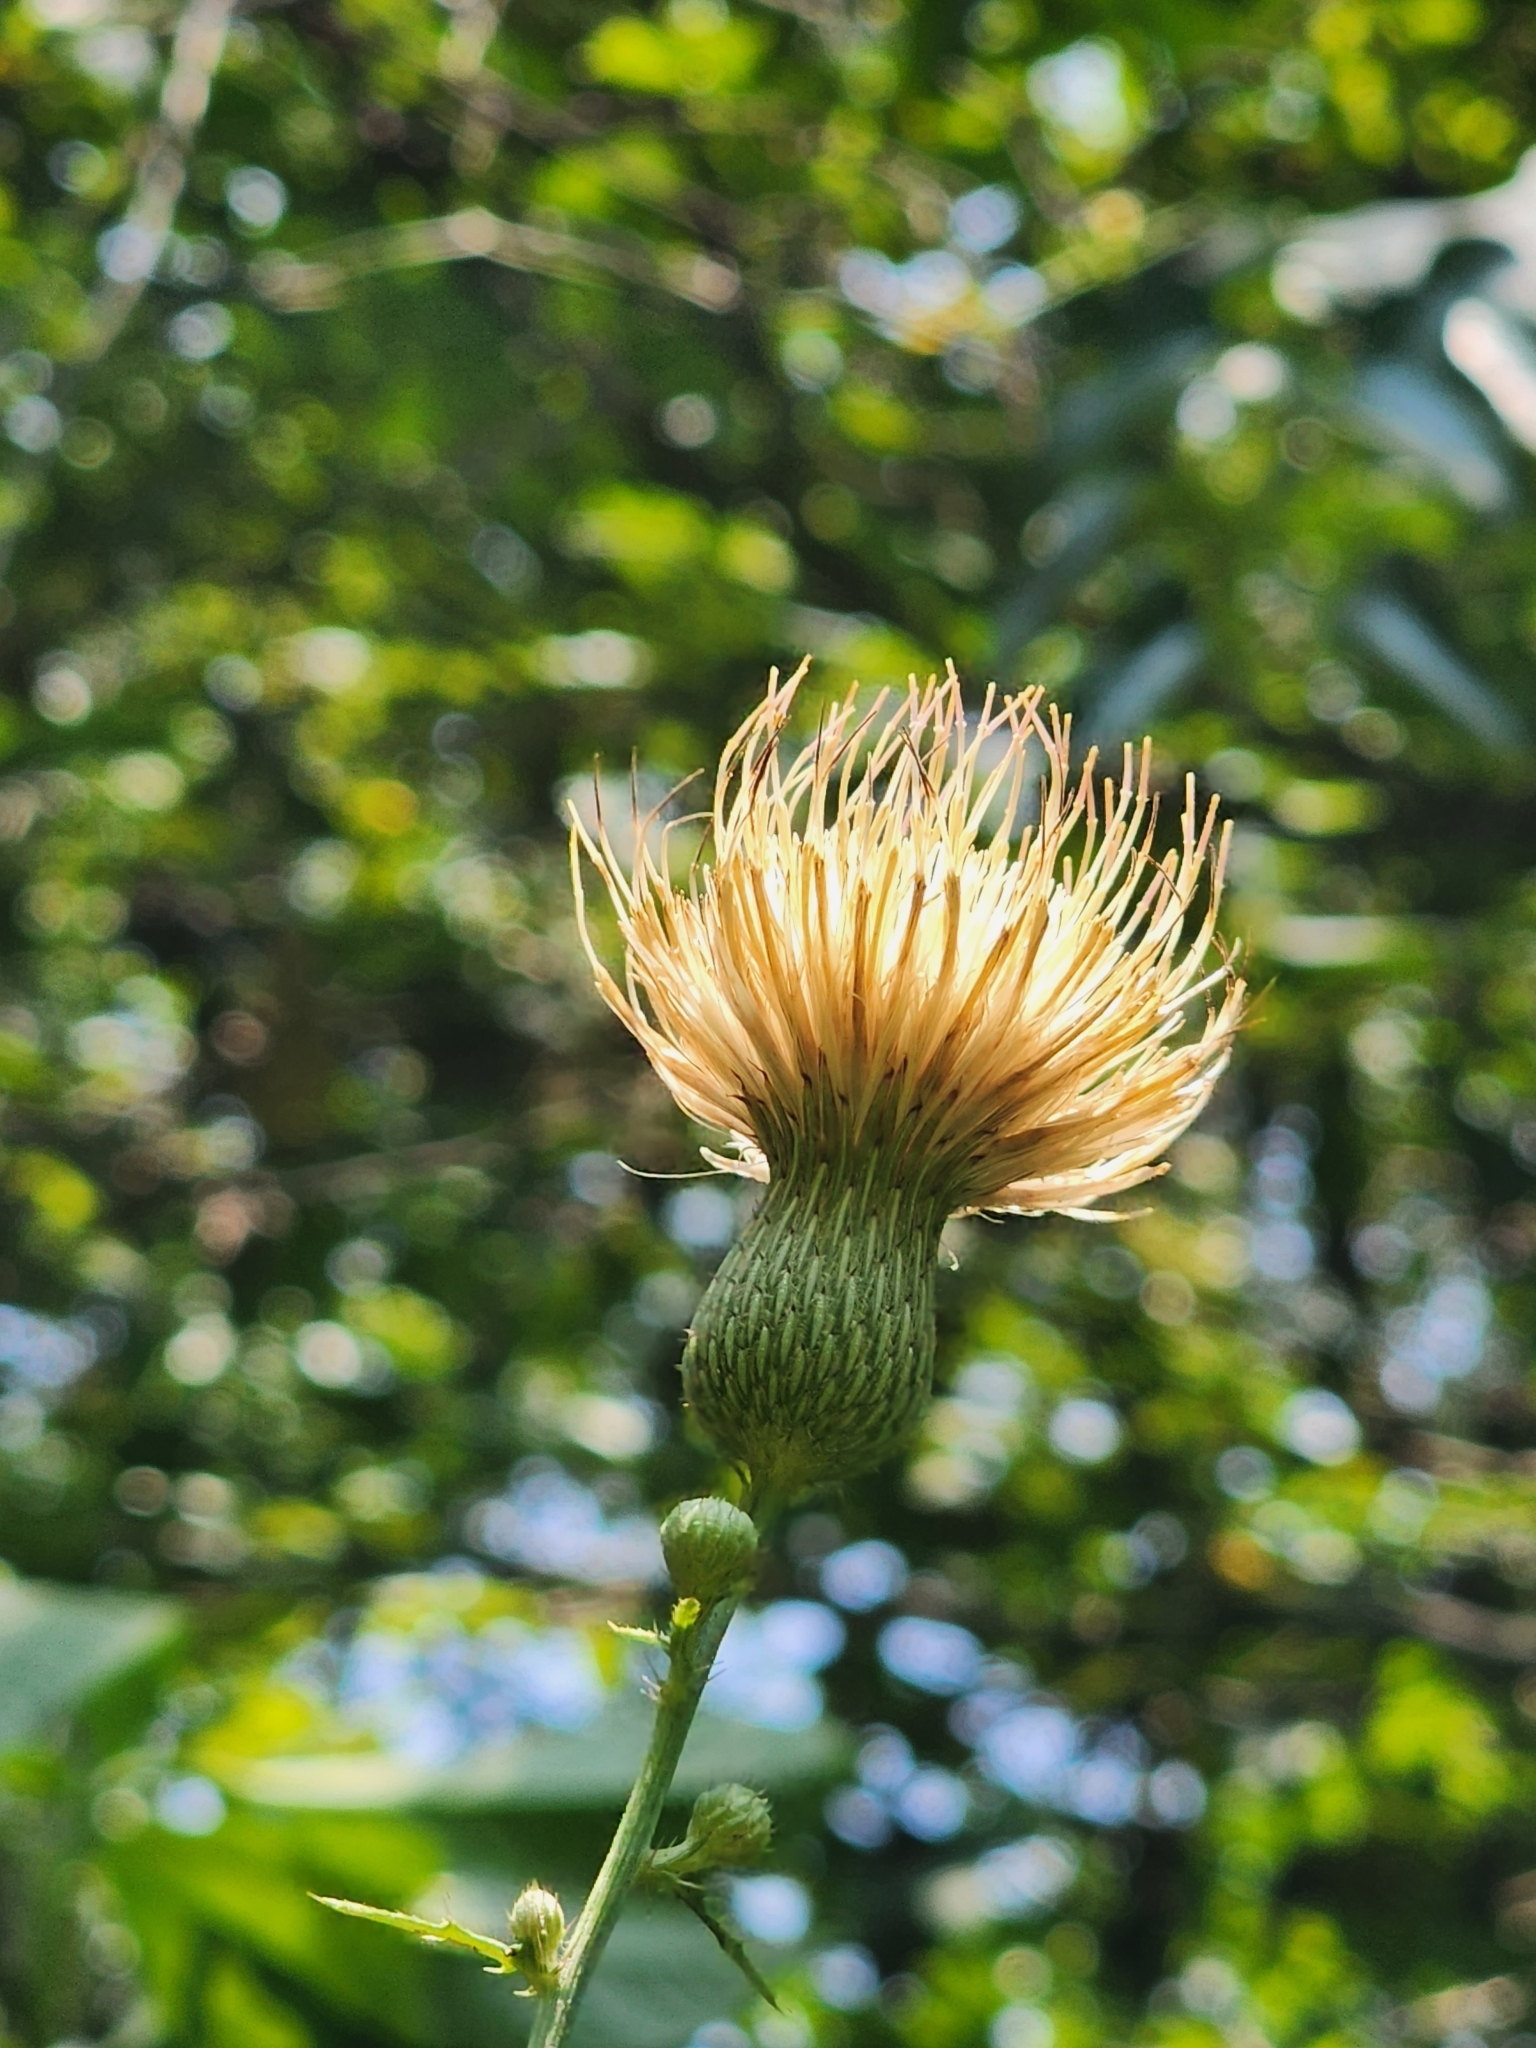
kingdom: Plantae
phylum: Tracheophyta
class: Magnoliopsida
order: Asterales
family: Asteraceae
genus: Cirsium
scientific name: Cirsium nuttalii
